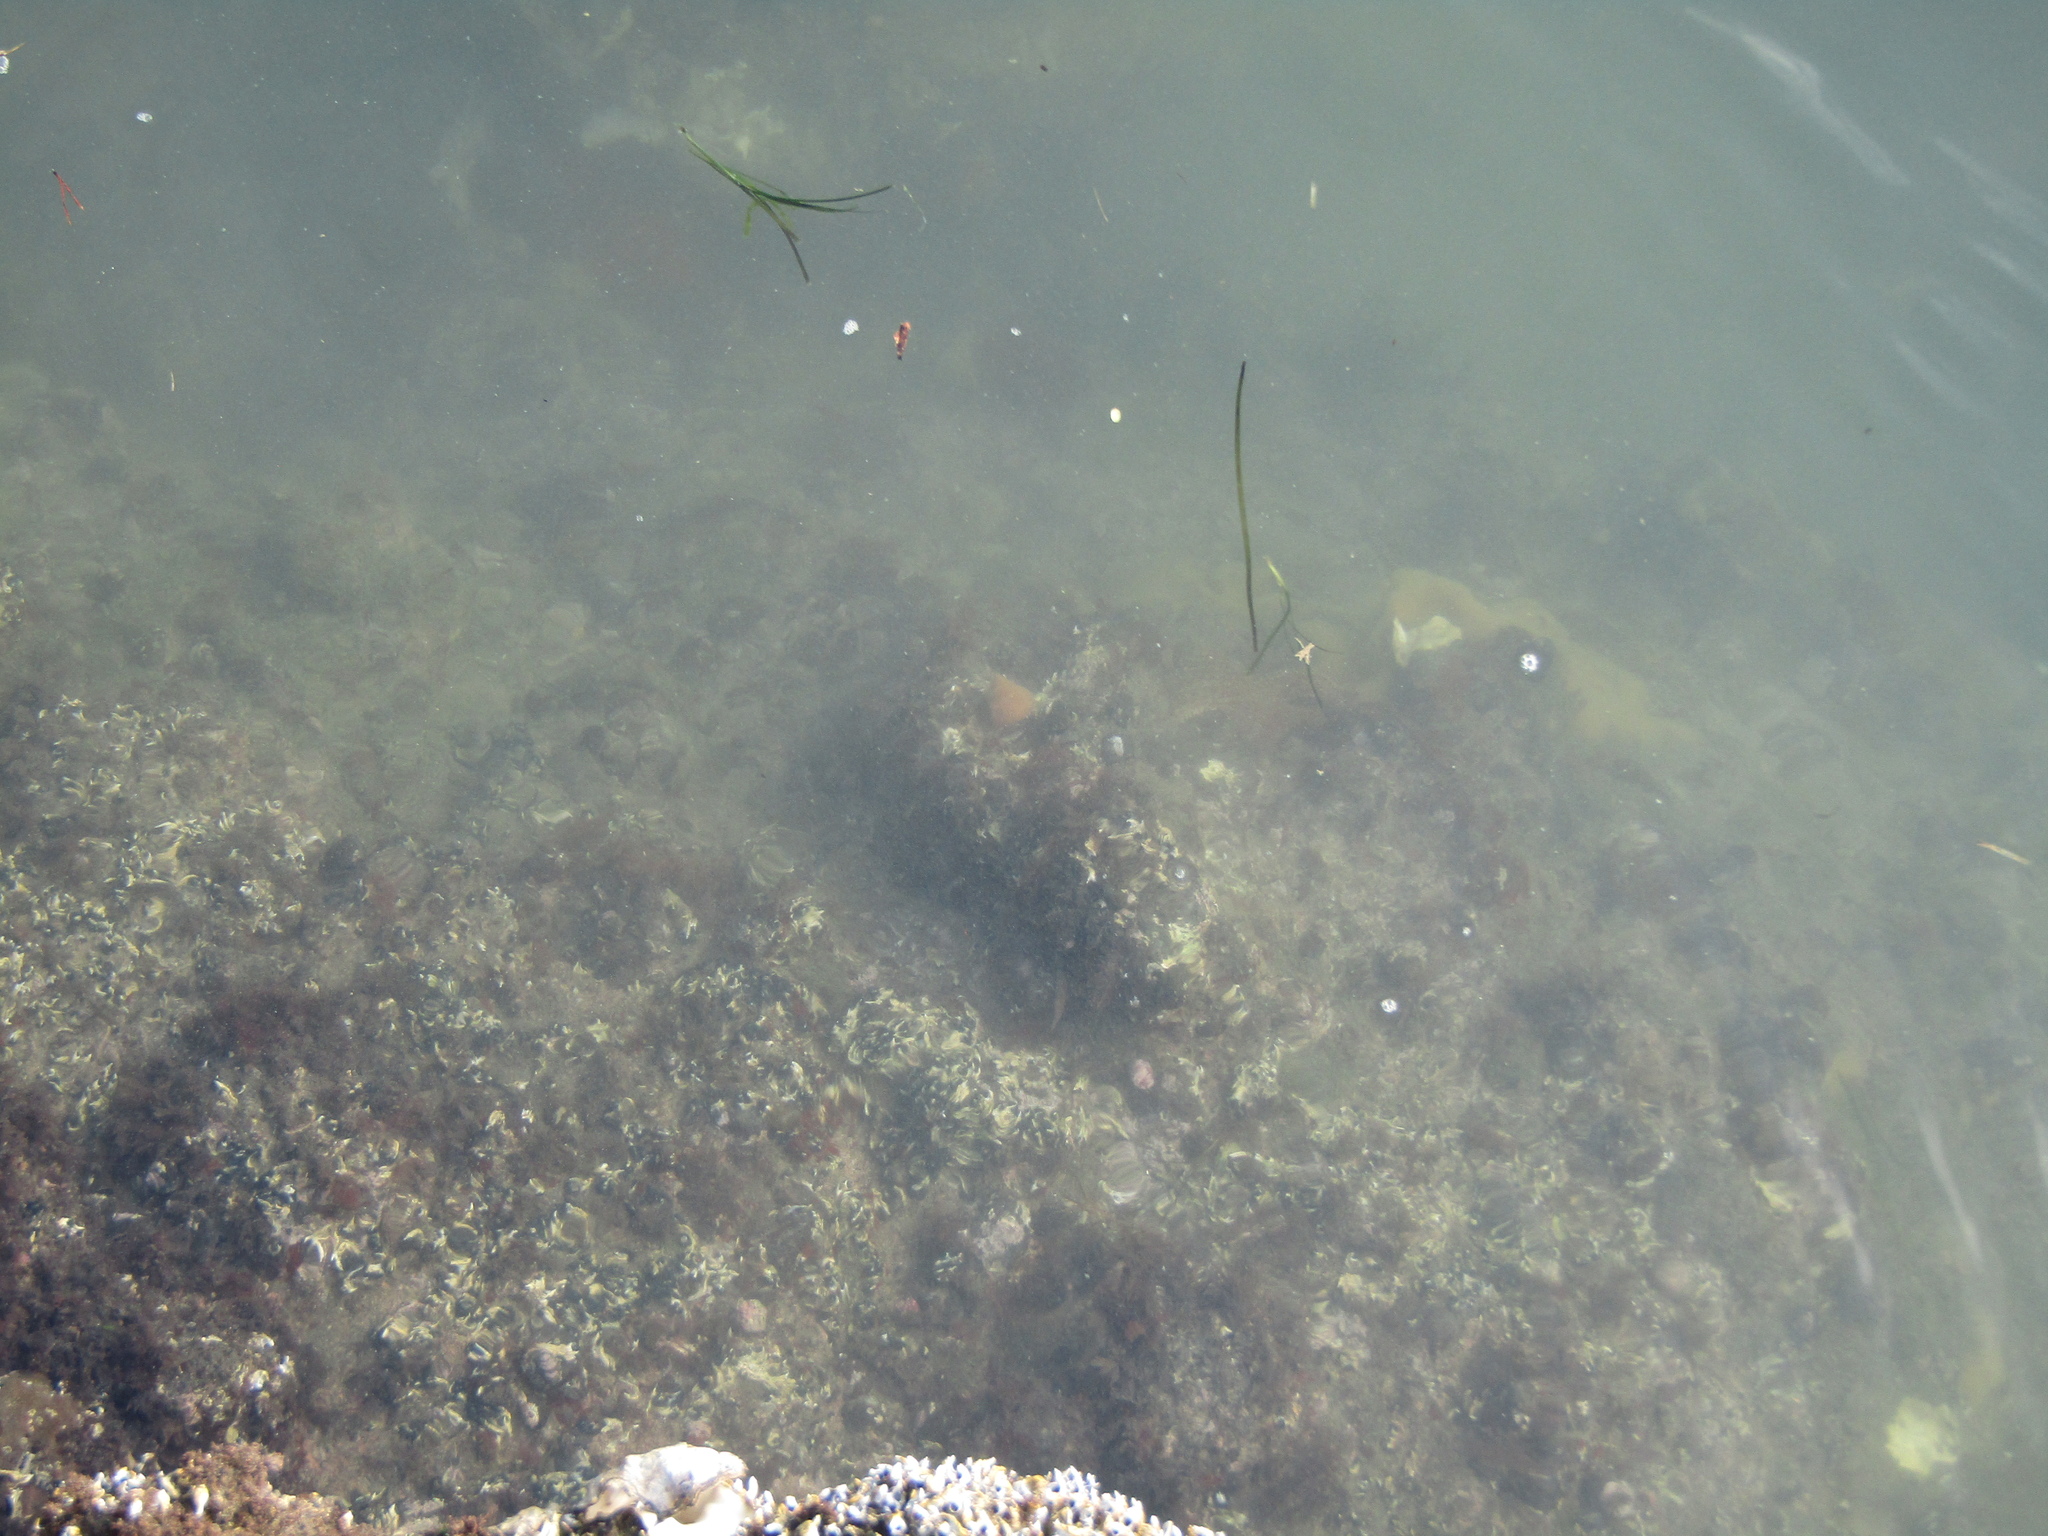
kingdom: Animalia
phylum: Mollusca
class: Gastropoda
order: Trochida
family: Calliostomatidae
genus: Maurea
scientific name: Maurea punctulata
